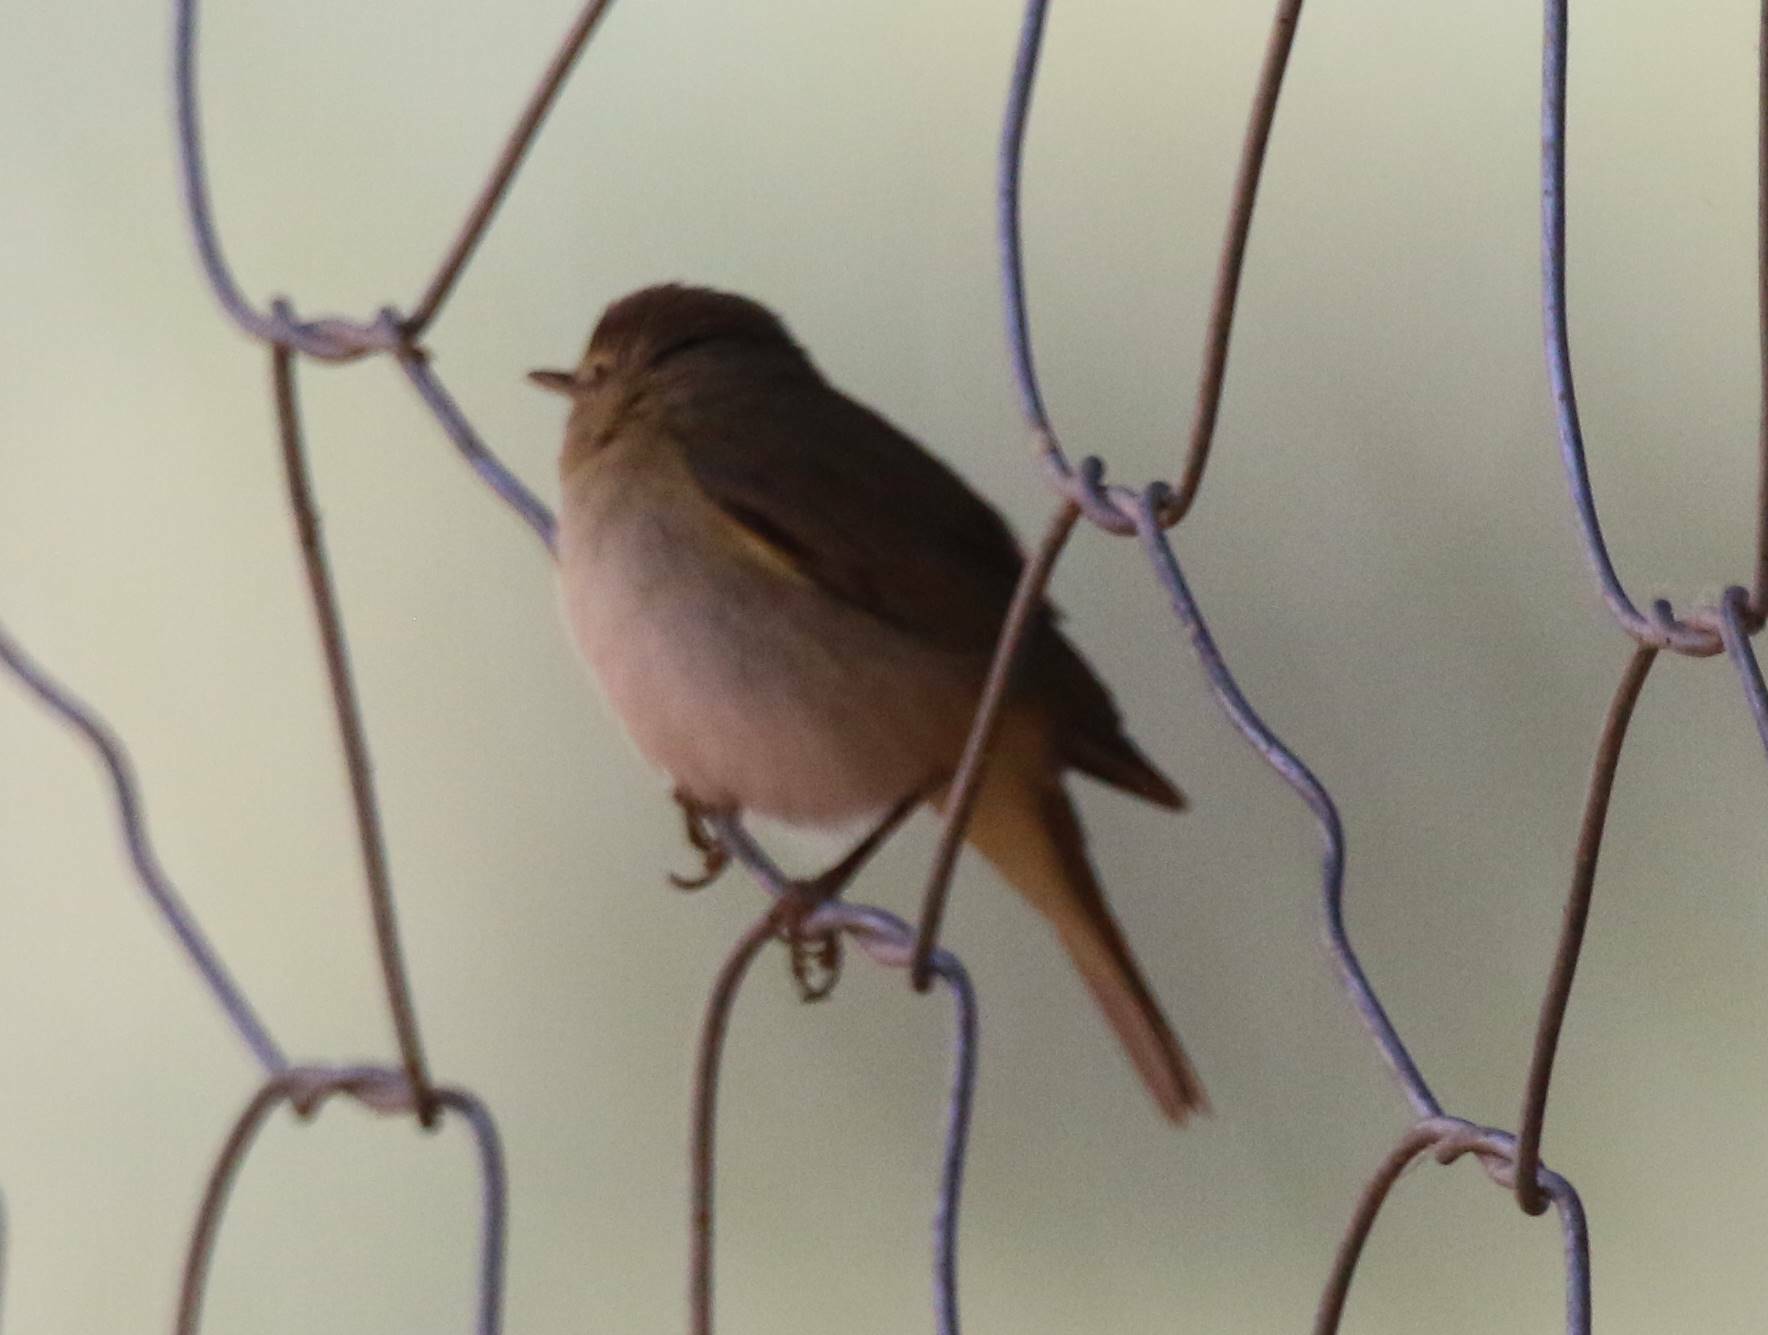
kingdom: Animalia
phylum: Chordata
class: Aves
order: Passeriformes
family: Phylloscopidae
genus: Phylloscopus
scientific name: Phylloscopus collybita
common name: Common chiffchaff
